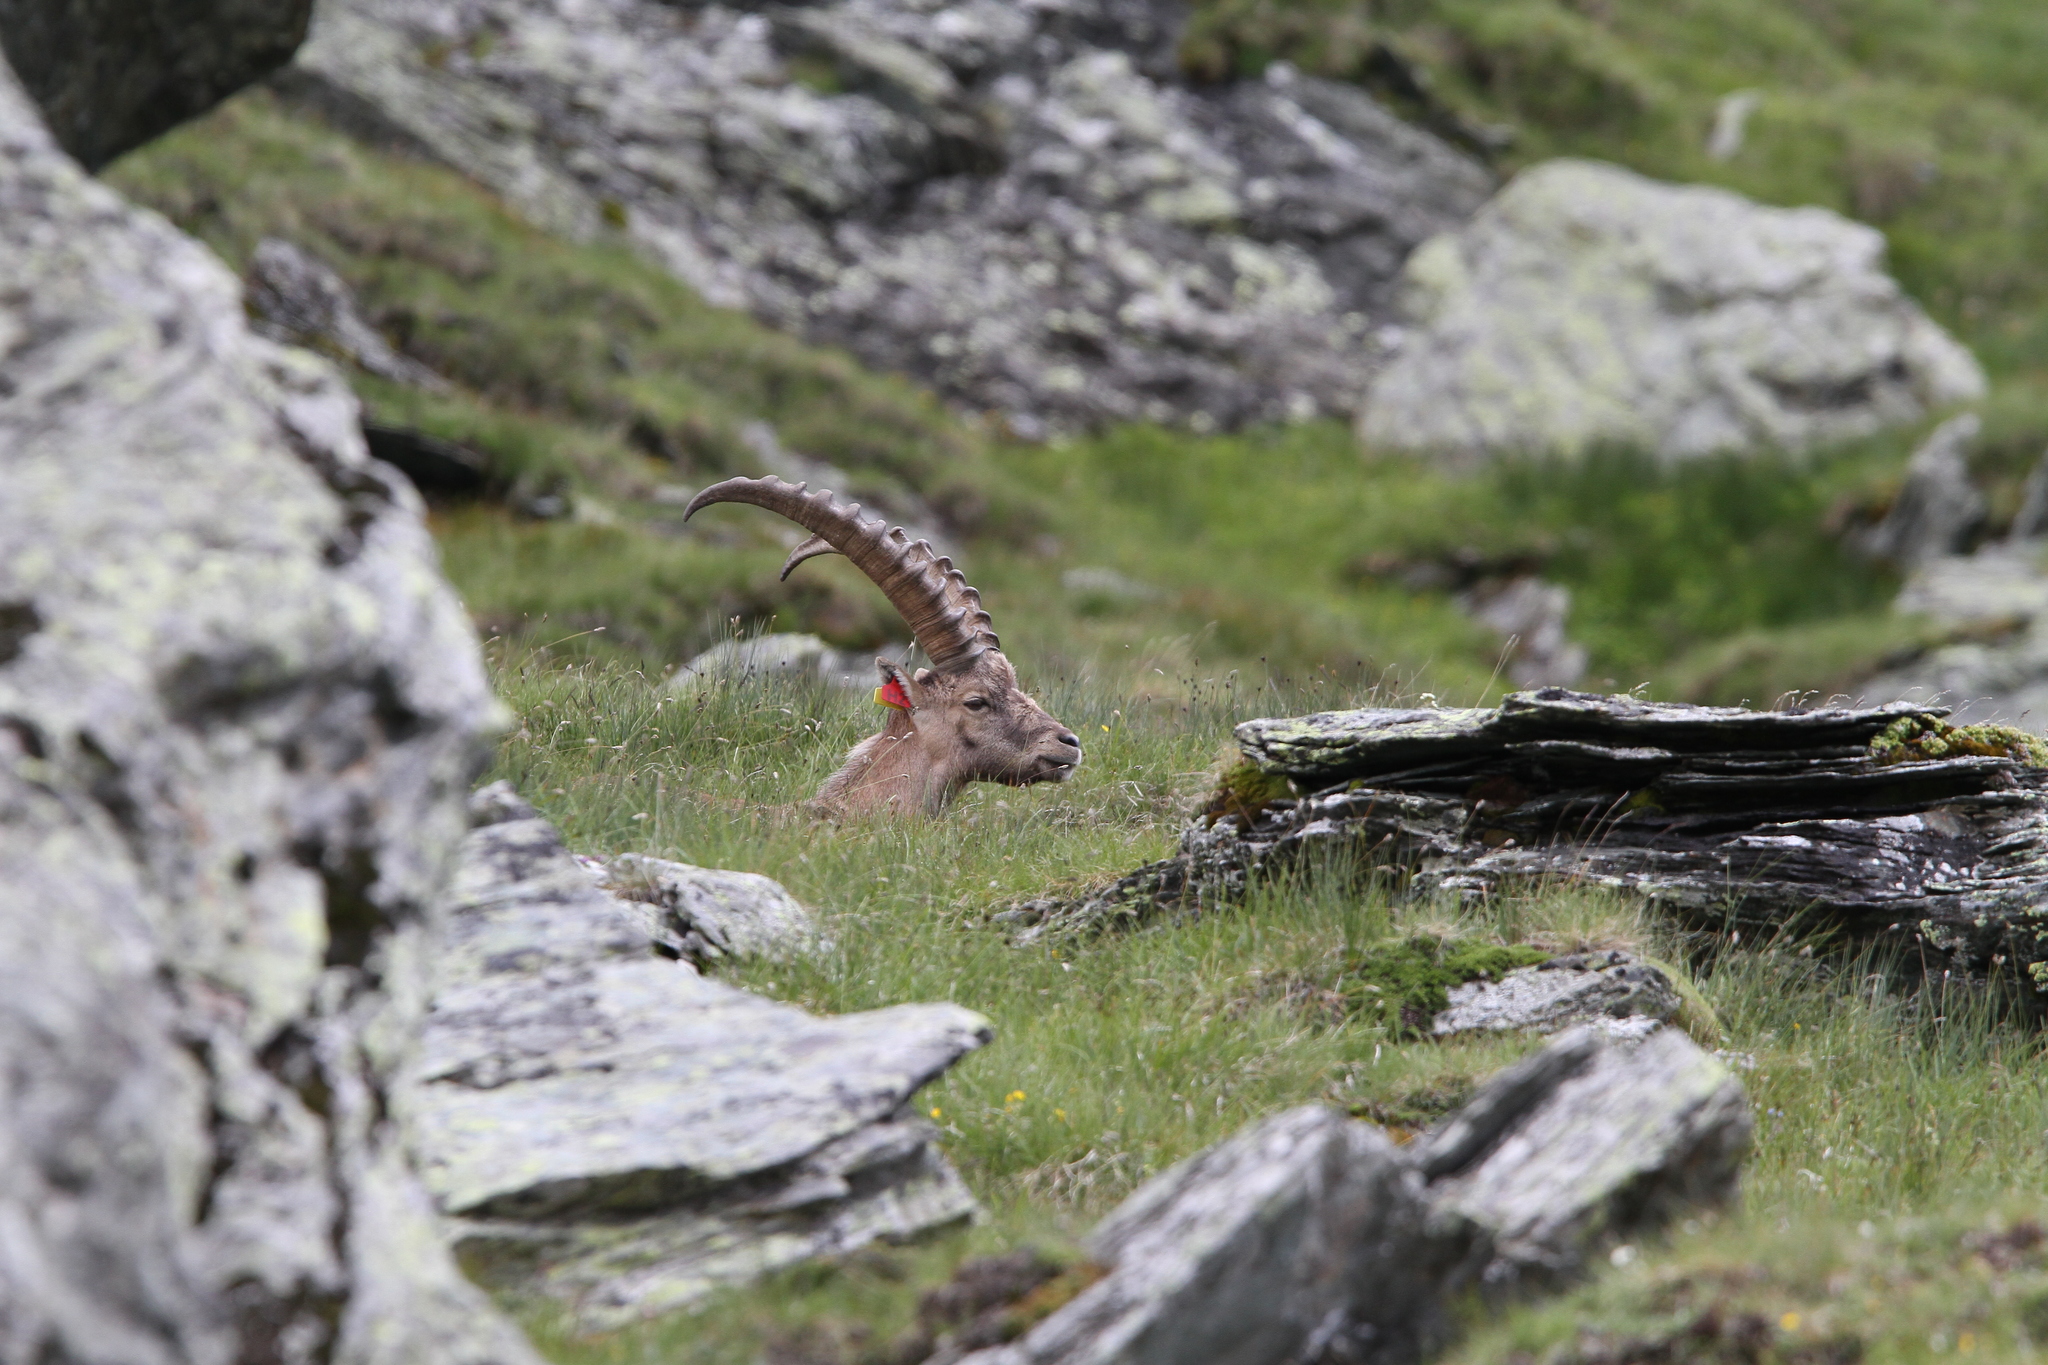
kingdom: Animalia
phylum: Chordata
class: Mammalia
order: Artiodactyla
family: Bovidae
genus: Capra
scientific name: Capra ibex
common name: Alpine ibex
